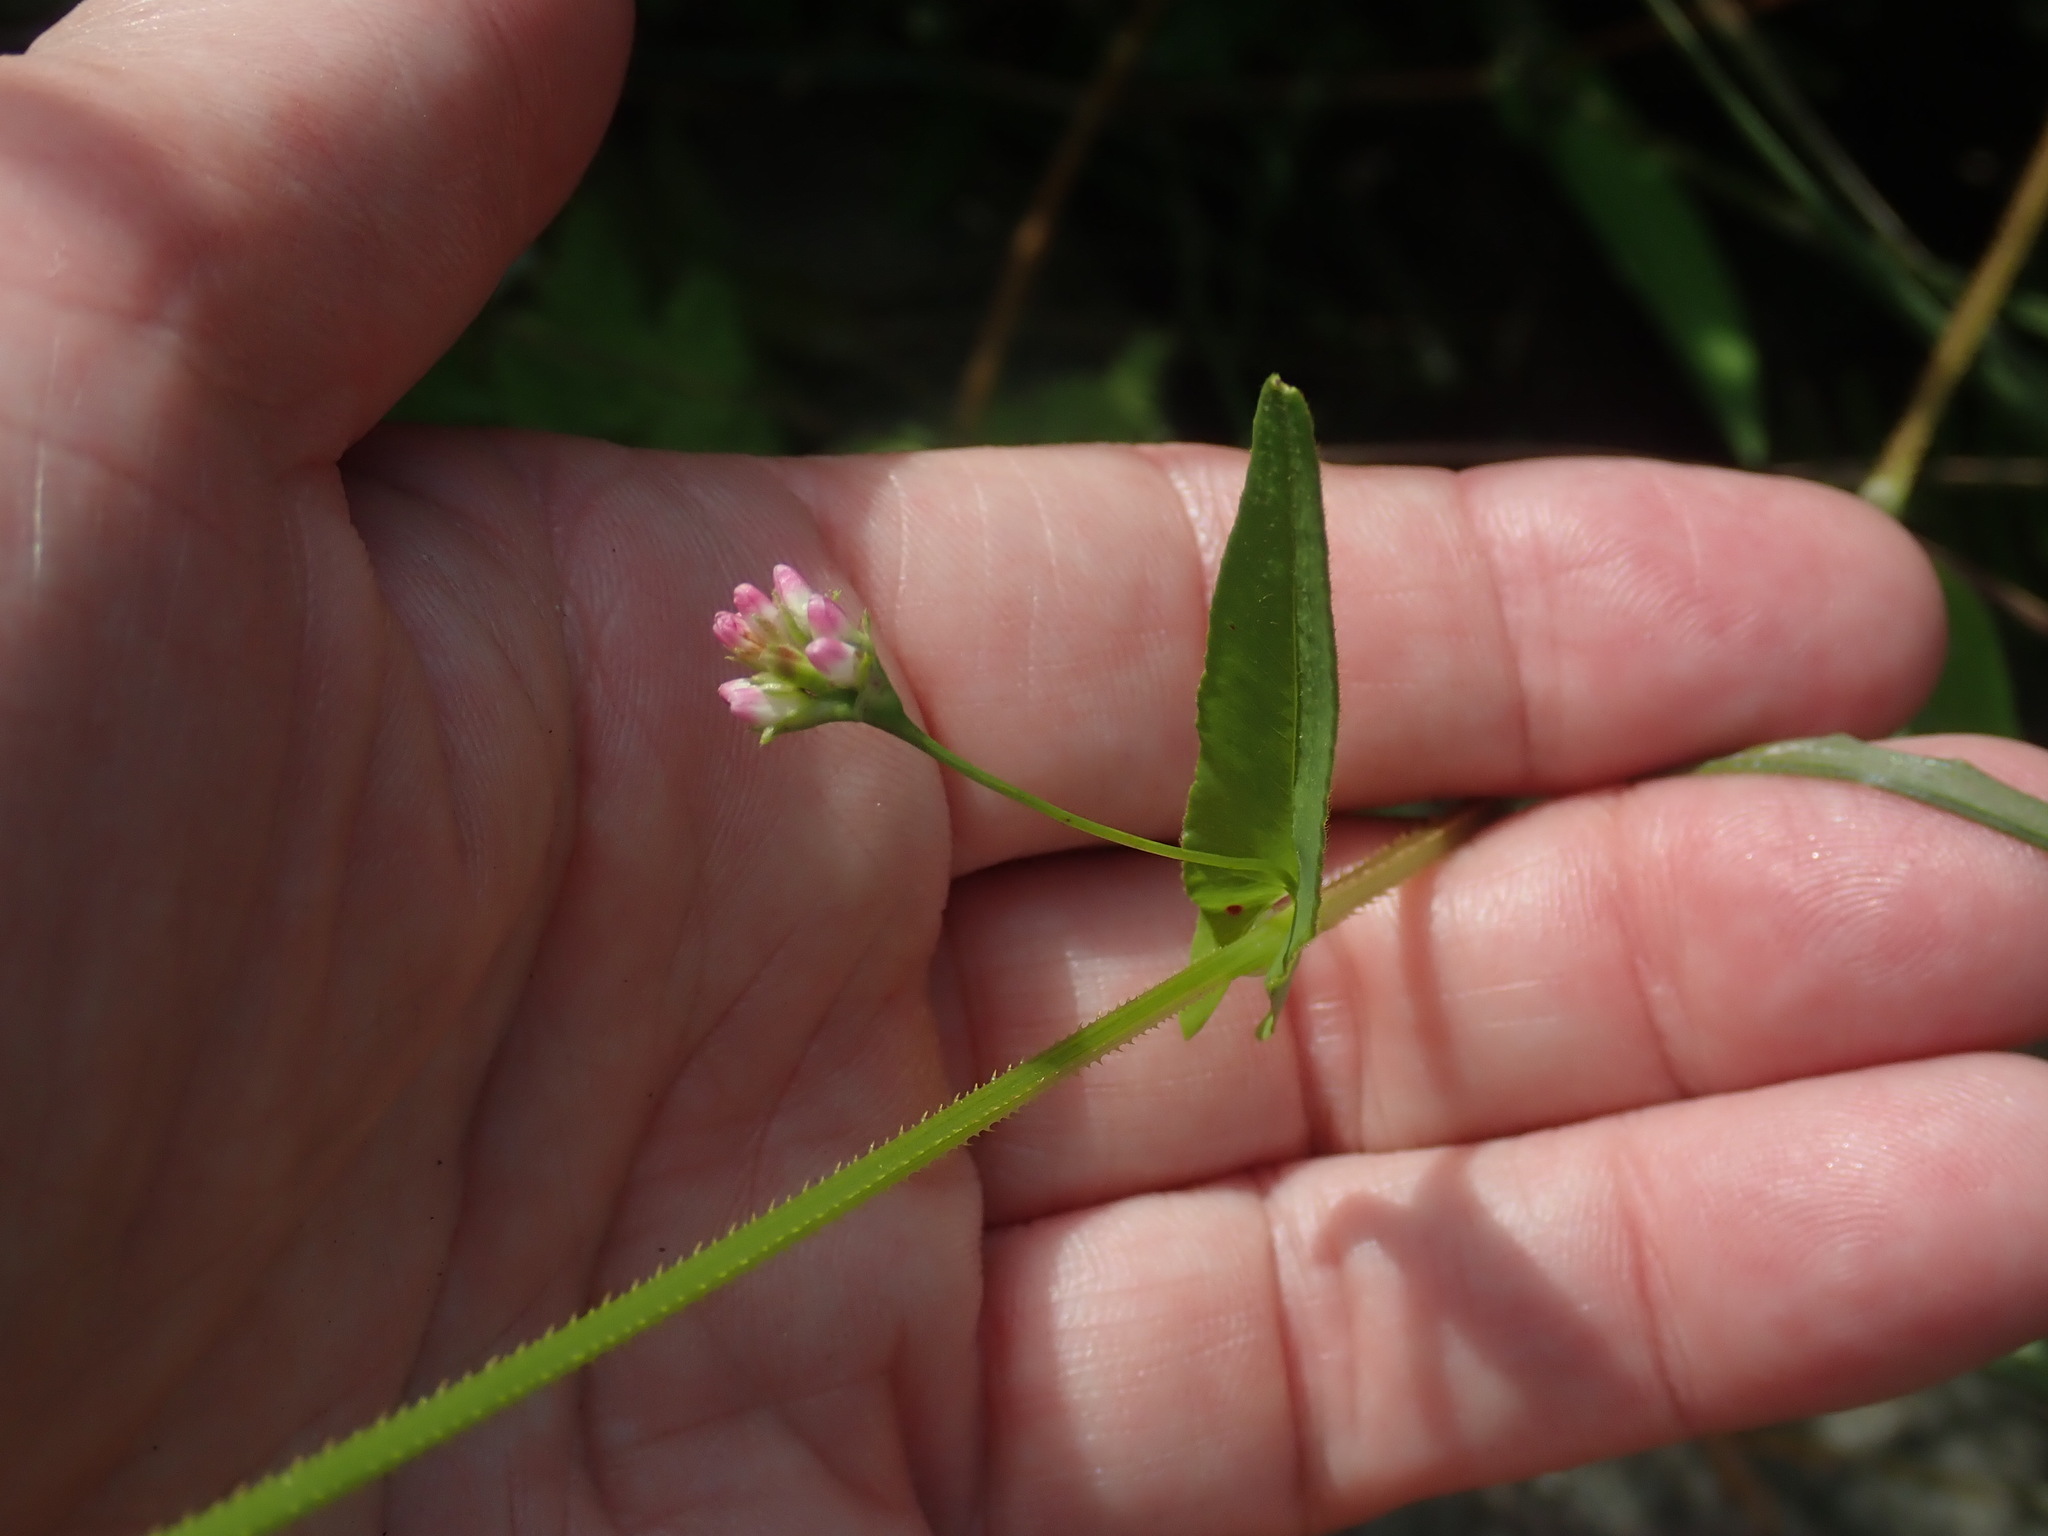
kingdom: Plantae
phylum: Tracheophyta
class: Magnoliopsida
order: Caryophyllales
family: Polygonaceae
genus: Persicaria
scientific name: Persicaria sagittata
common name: American tearthumb
